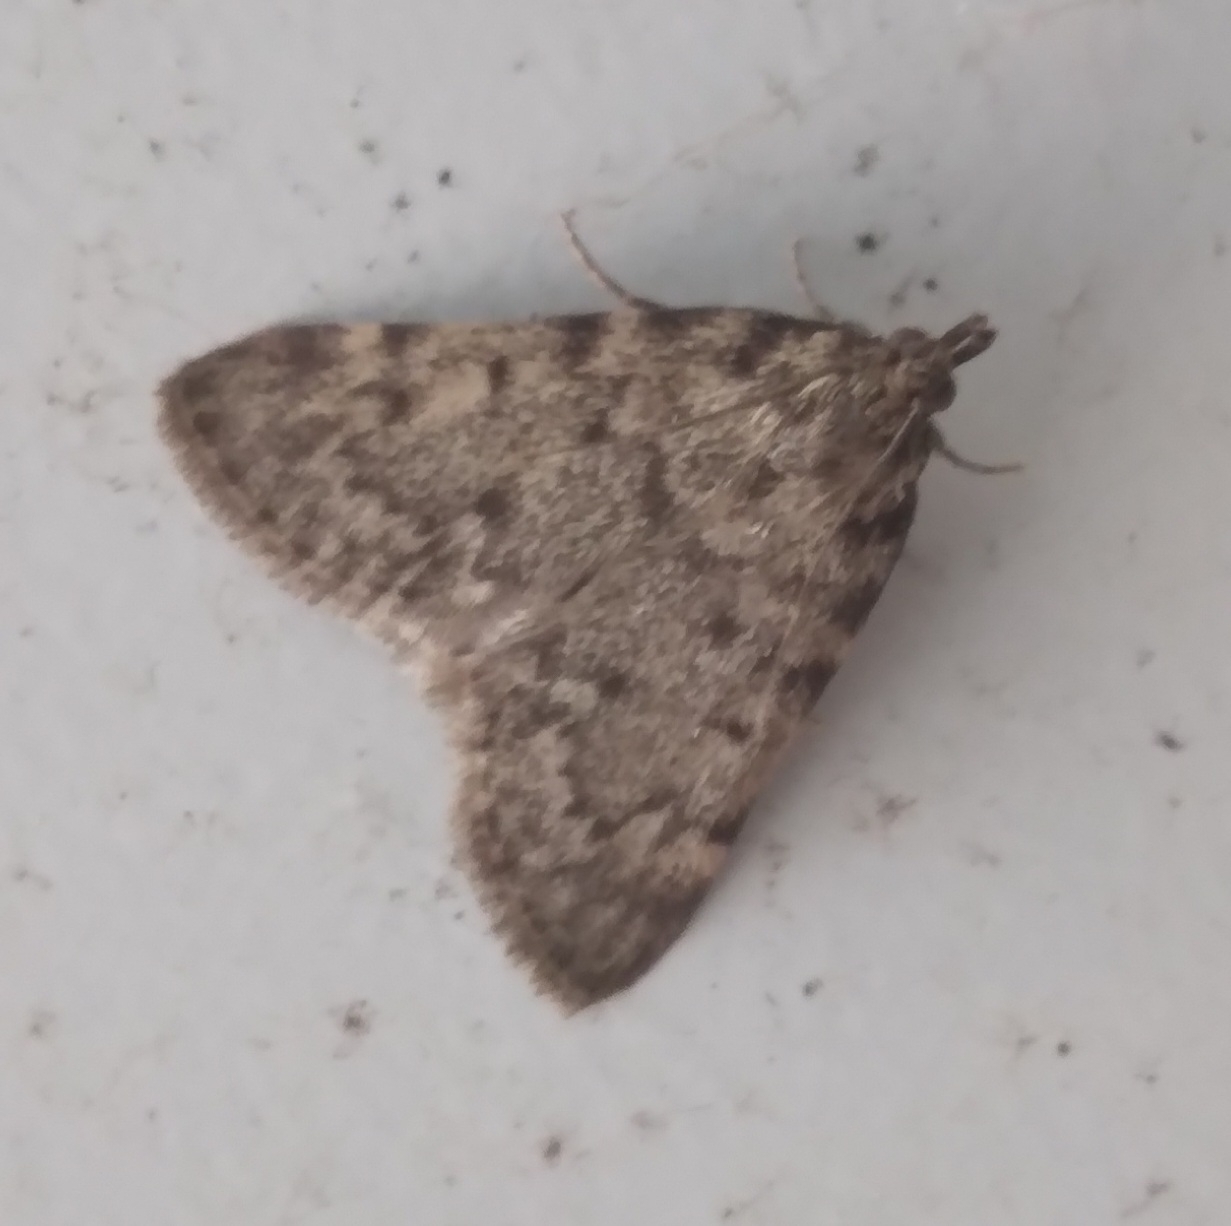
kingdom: Animalia
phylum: Arthropoda
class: Insecta
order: Lepidoptera
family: Pyralidae
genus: Aglossa
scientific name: Aglossa pinguinalis
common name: Large tabby
